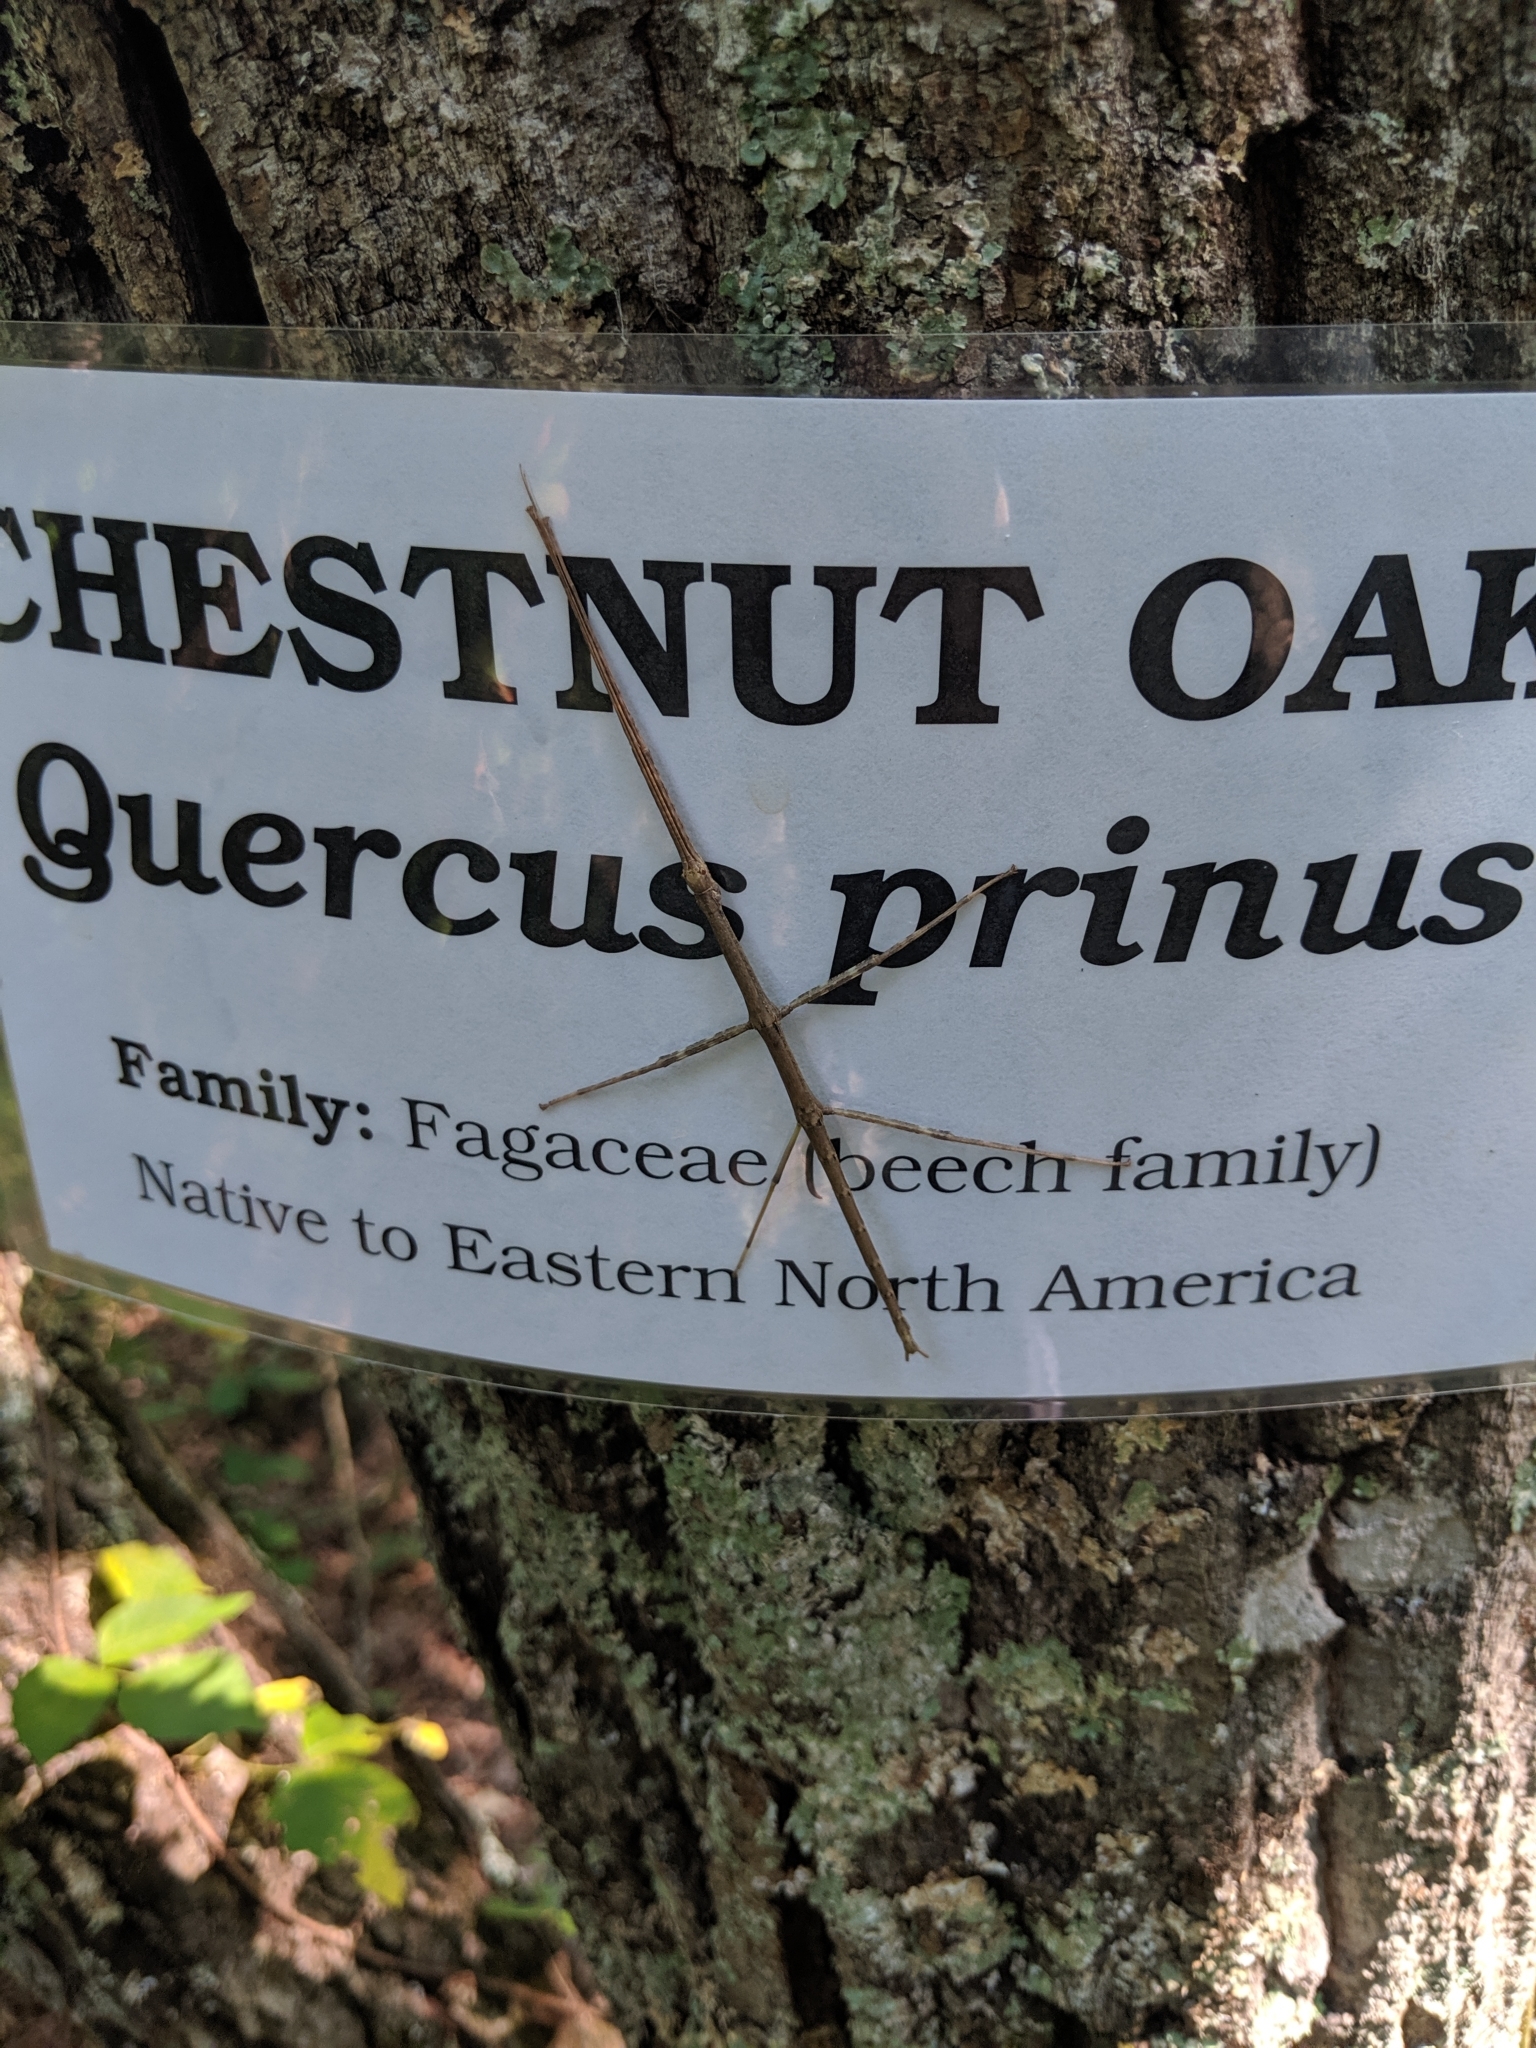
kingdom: Animalia
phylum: Arthropoda
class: Insecta
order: Phasmida
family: Diapheromeridae
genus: Diapheromera
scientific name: Diapheromera femorata
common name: Common american walkingstick
